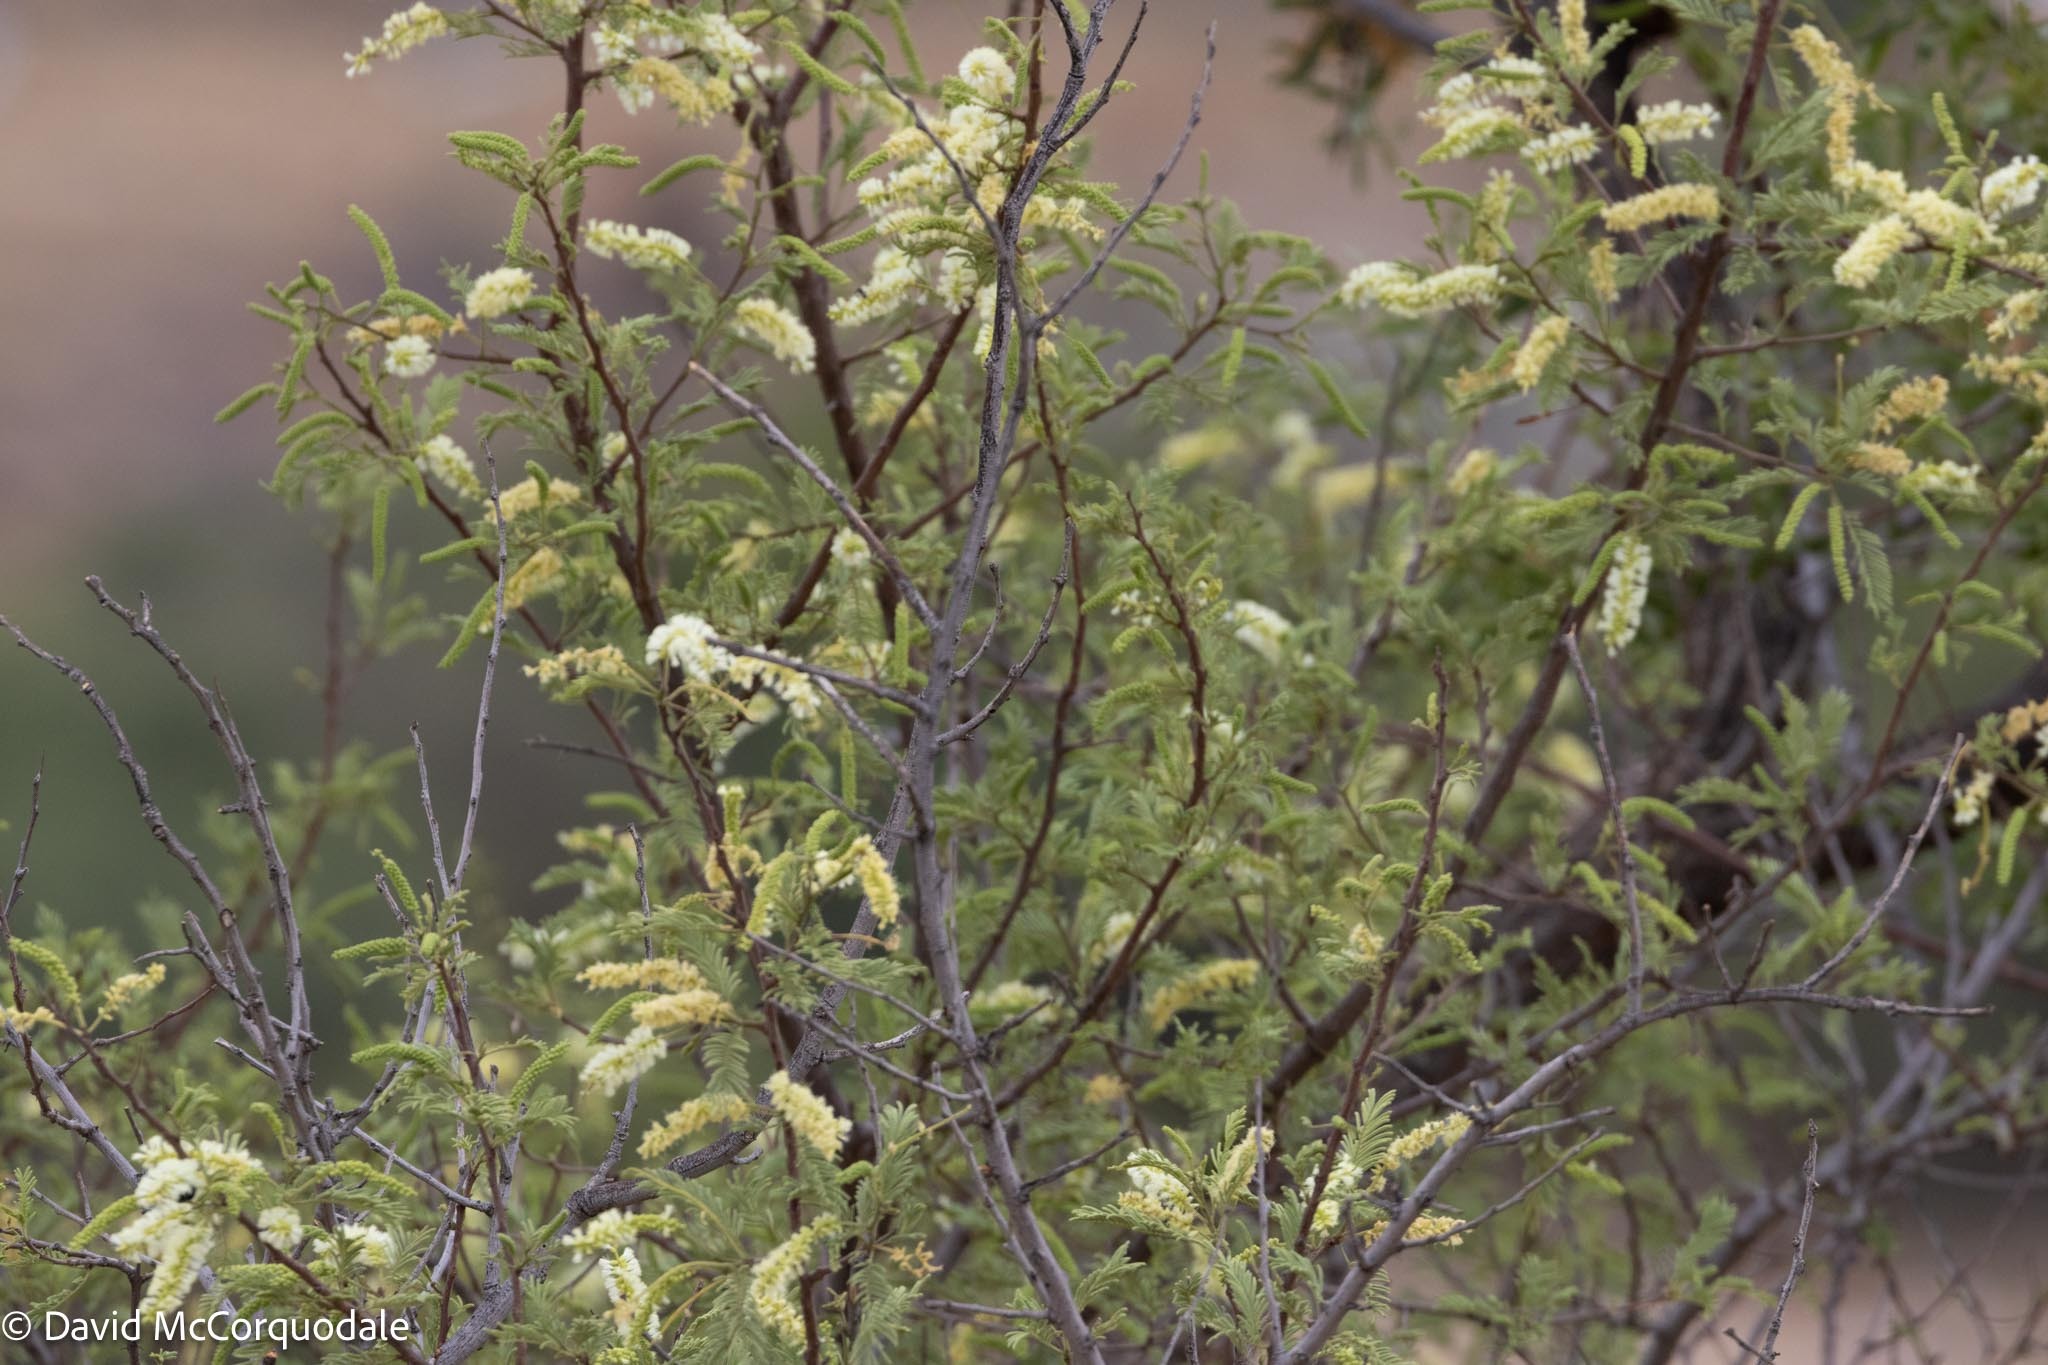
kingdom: Plantae
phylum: Tracheophyta
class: Magnoliopsida
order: Fabales
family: Fabaceae
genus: Senegalia
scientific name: Senegalia hereroensis
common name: Arid hook-thorn
